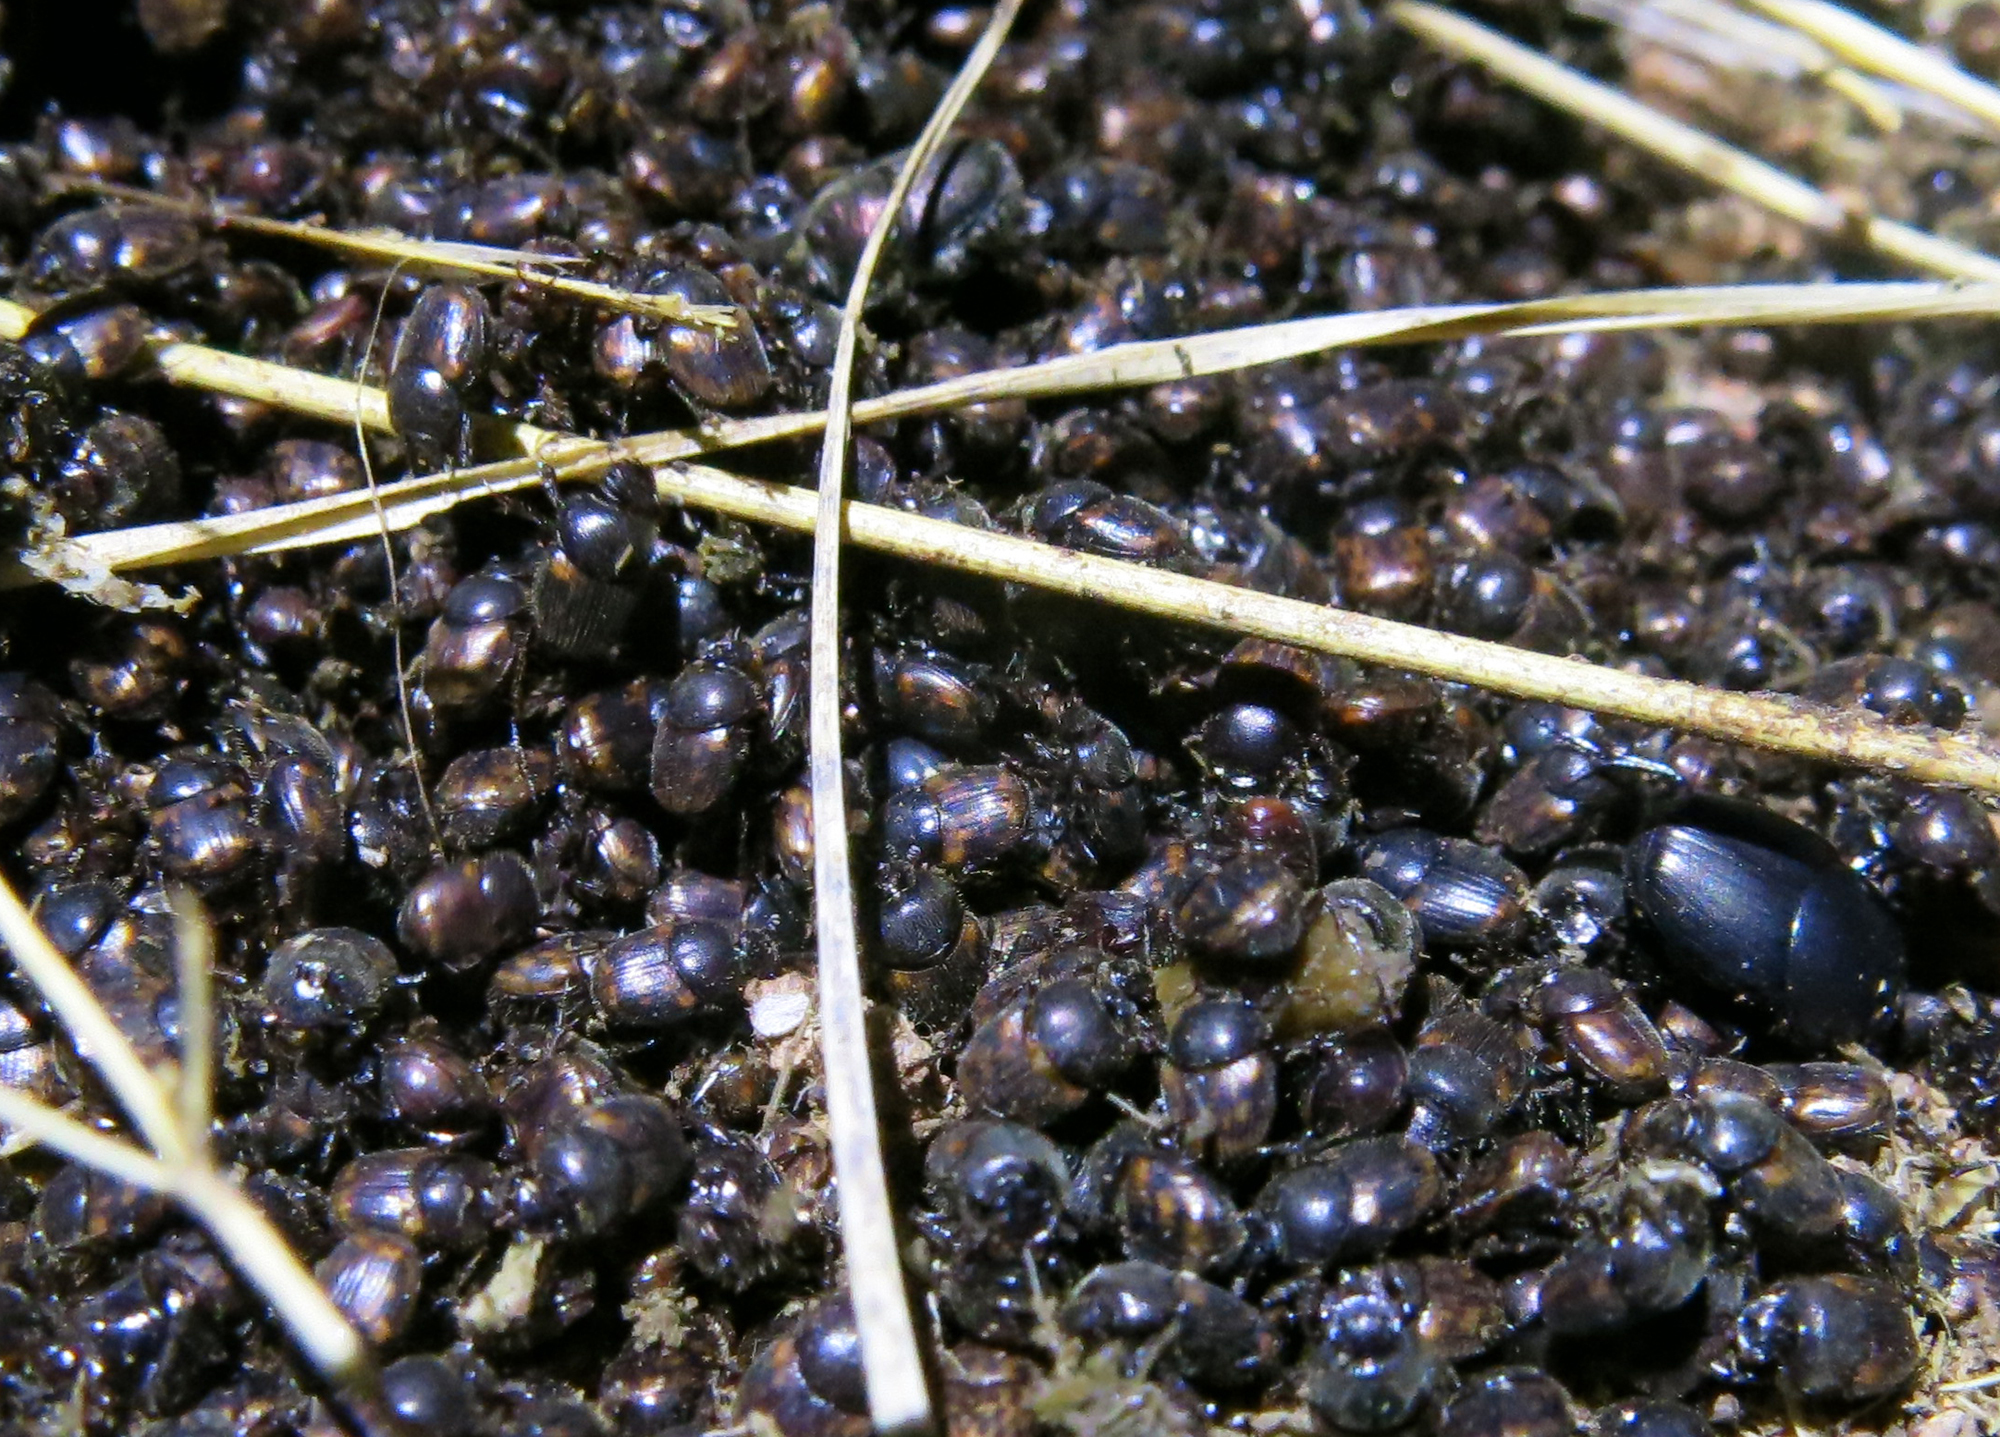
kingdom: Animalia
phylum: Arthropoda
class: Insecta
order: Coleoptera
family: Scarabaeidae
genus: Kurtops
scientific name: Kurtops signatus
